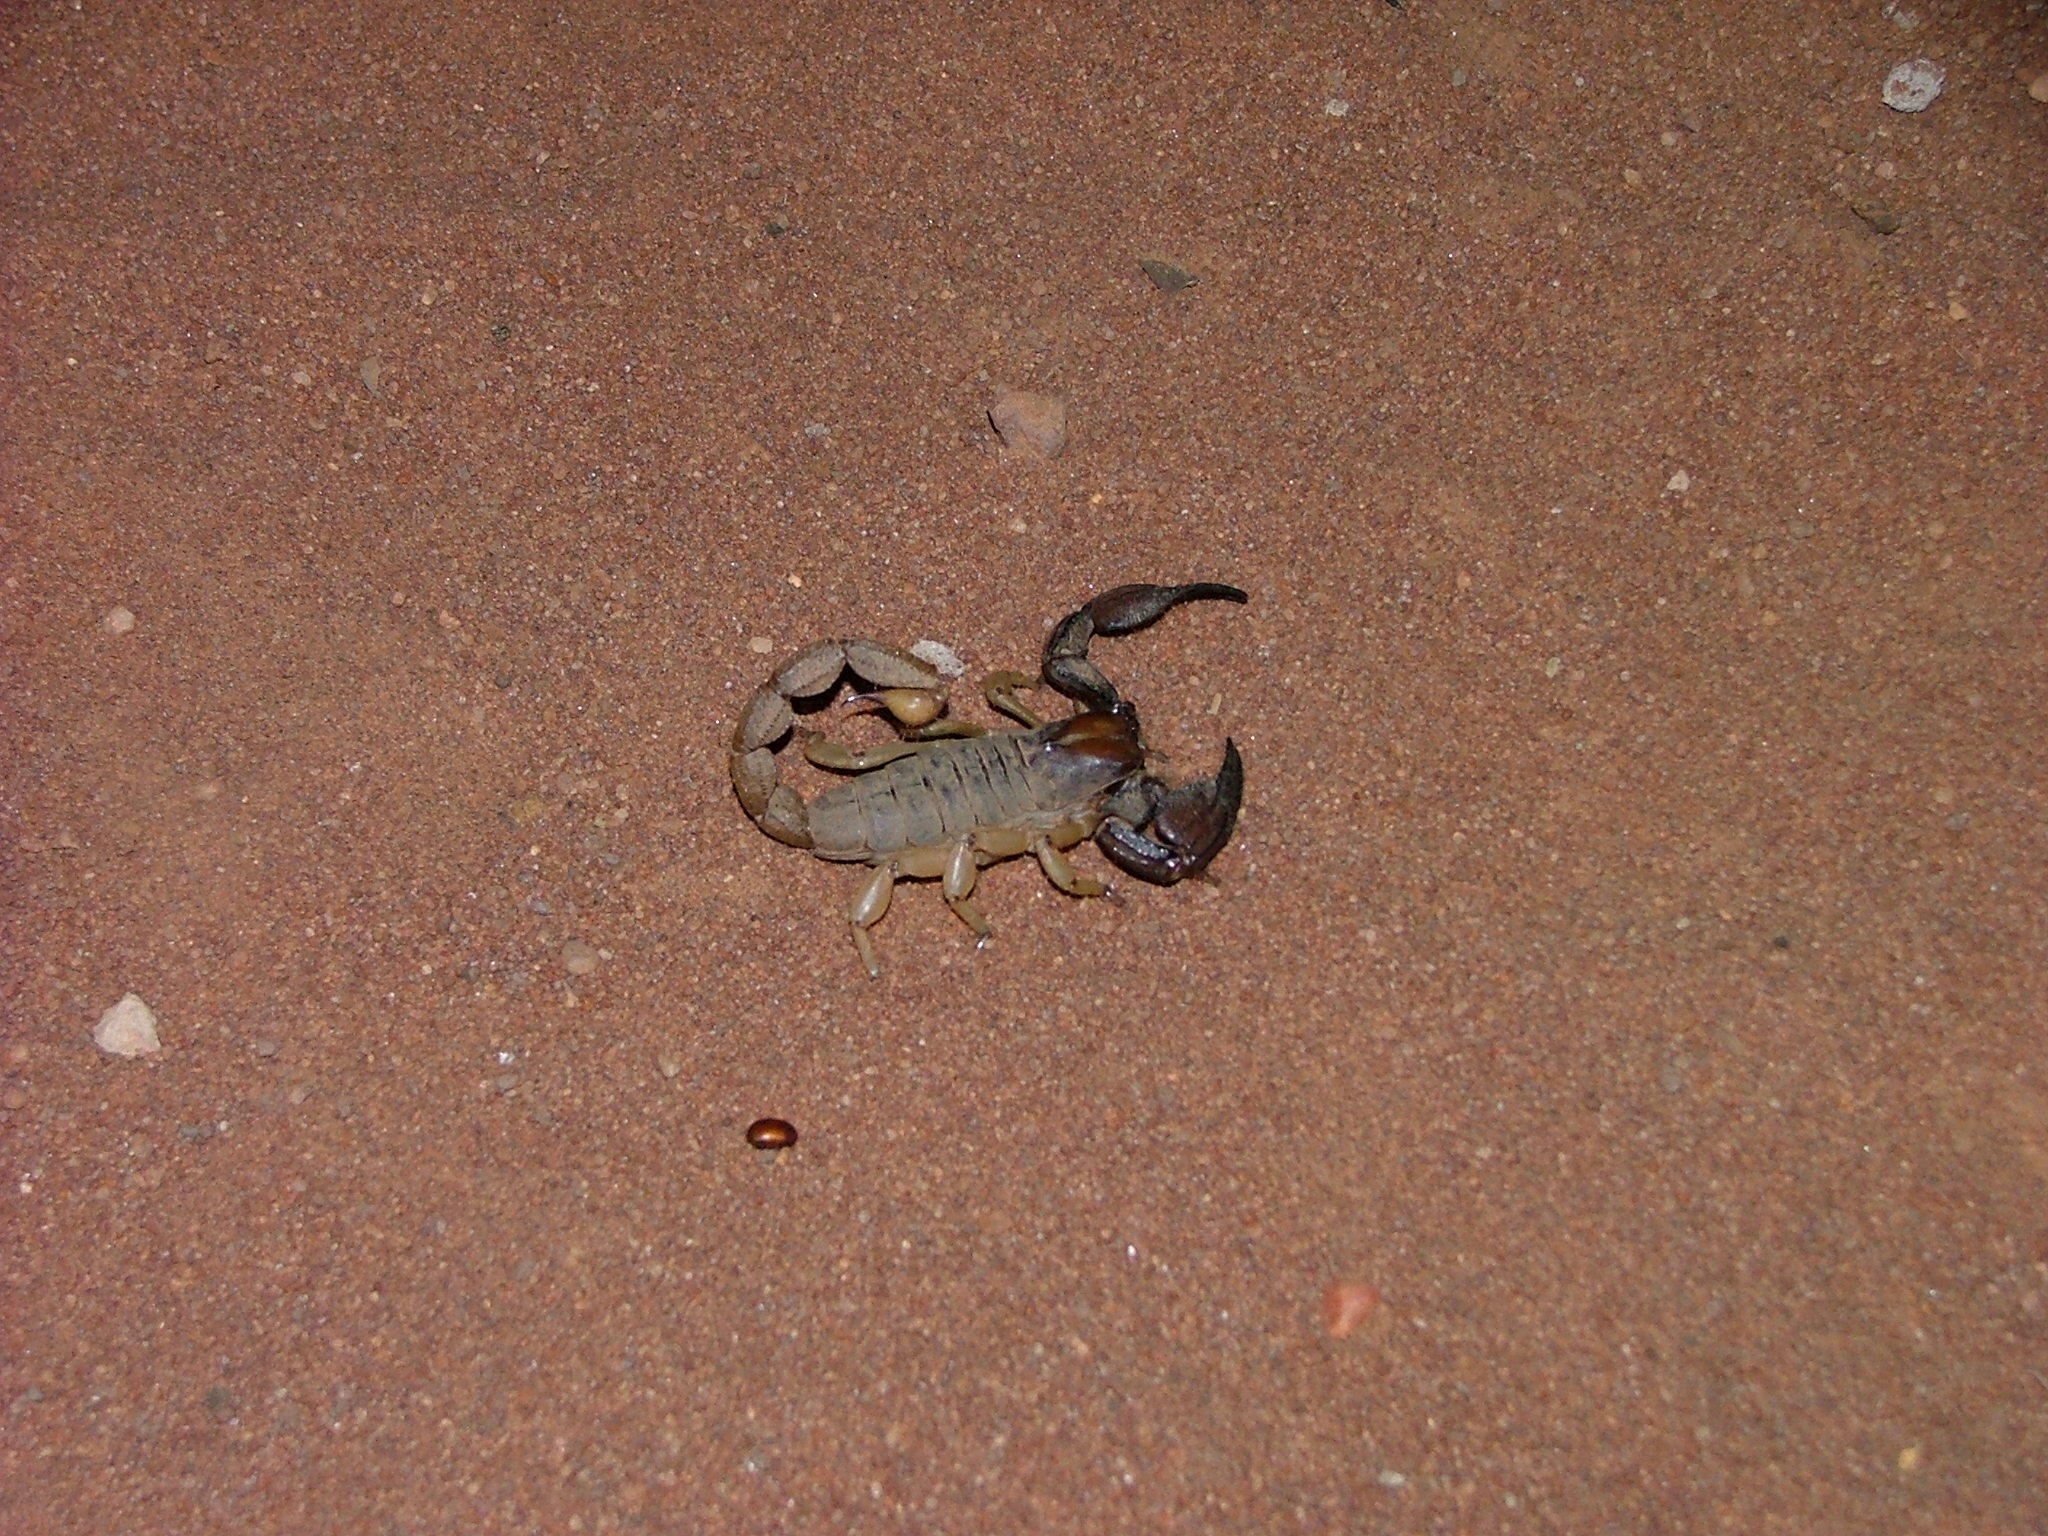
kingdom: Animalia
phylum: Arthropoda
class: Arachnida
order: Scorpiones
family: Scorpionidae
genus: Opistophthalmus
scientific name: Opistophthalmus glabrifrons
